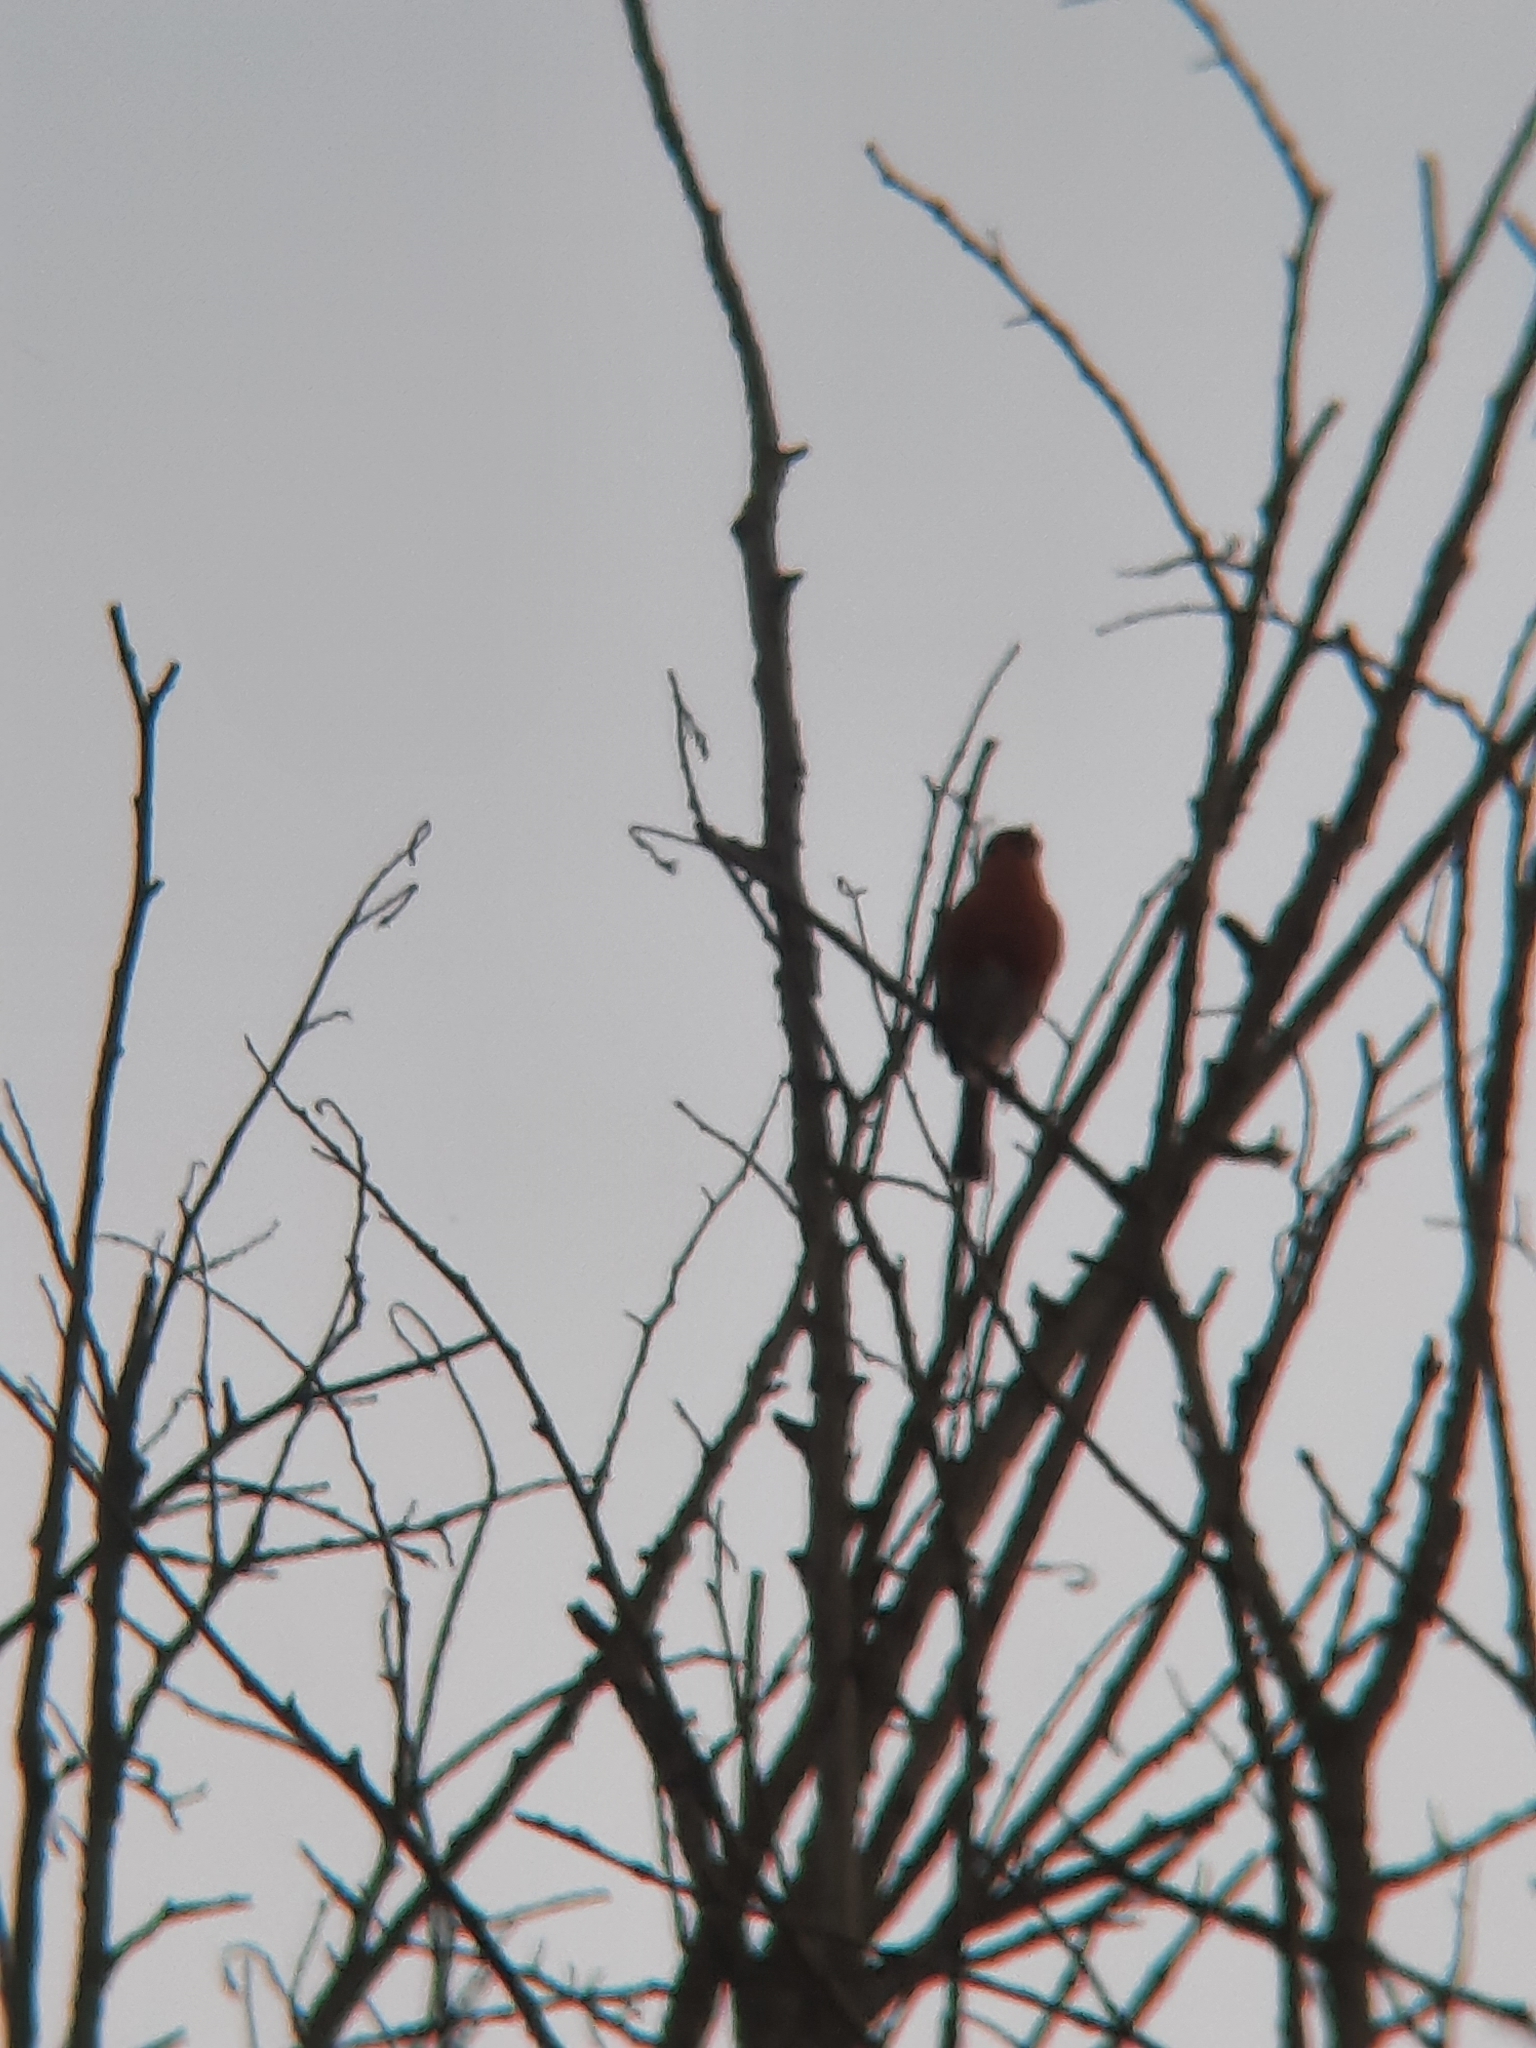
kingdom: Animalia
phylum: Chordata
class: Aves
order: Passeriformes
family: Muscicapidae
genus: Erithacus
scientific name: Erithacus rubecula
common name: European robin
